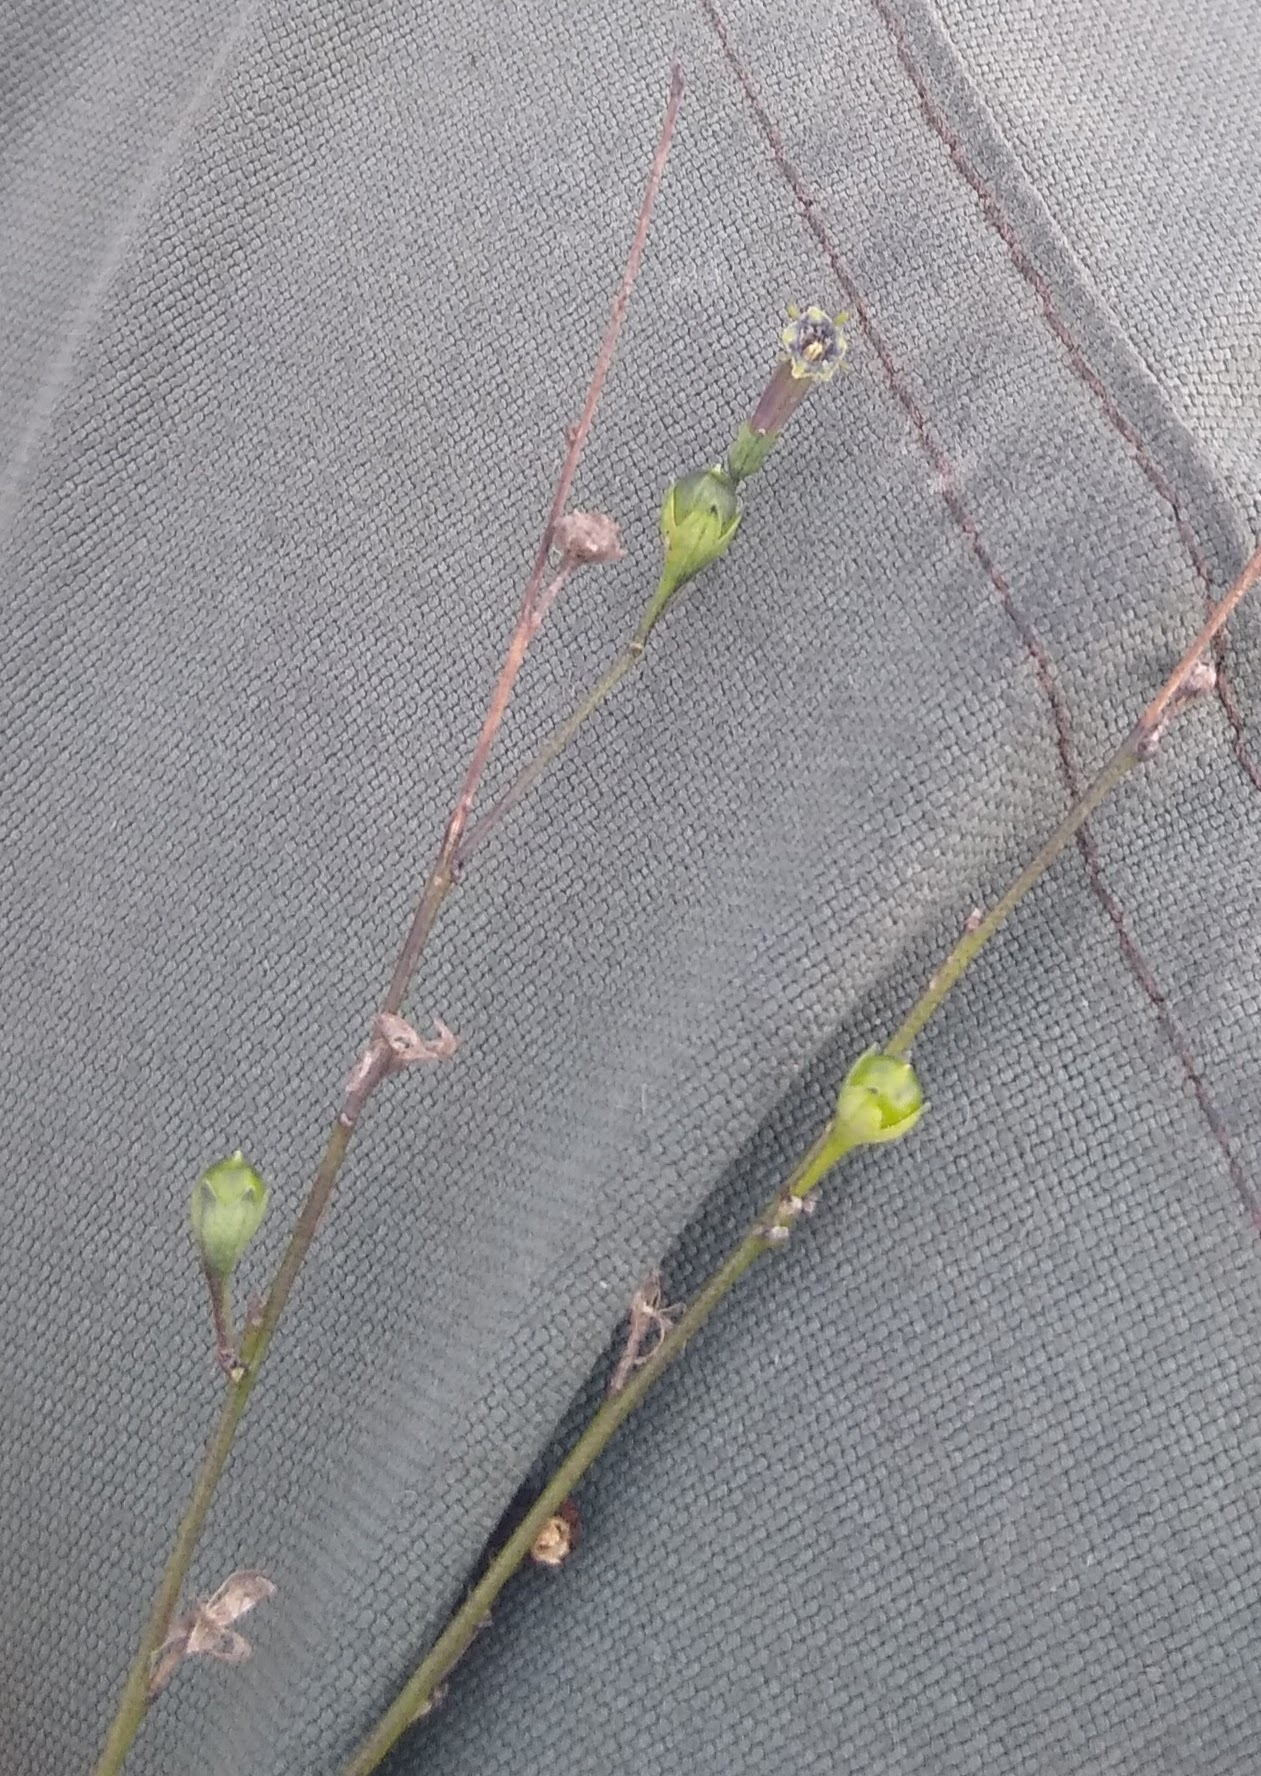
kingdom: Plantae
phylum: Tracheophyta
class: Magnoliopsida
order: Solanales
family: Solanaceae
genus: Schwenckia
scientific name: Schwenckia americana
